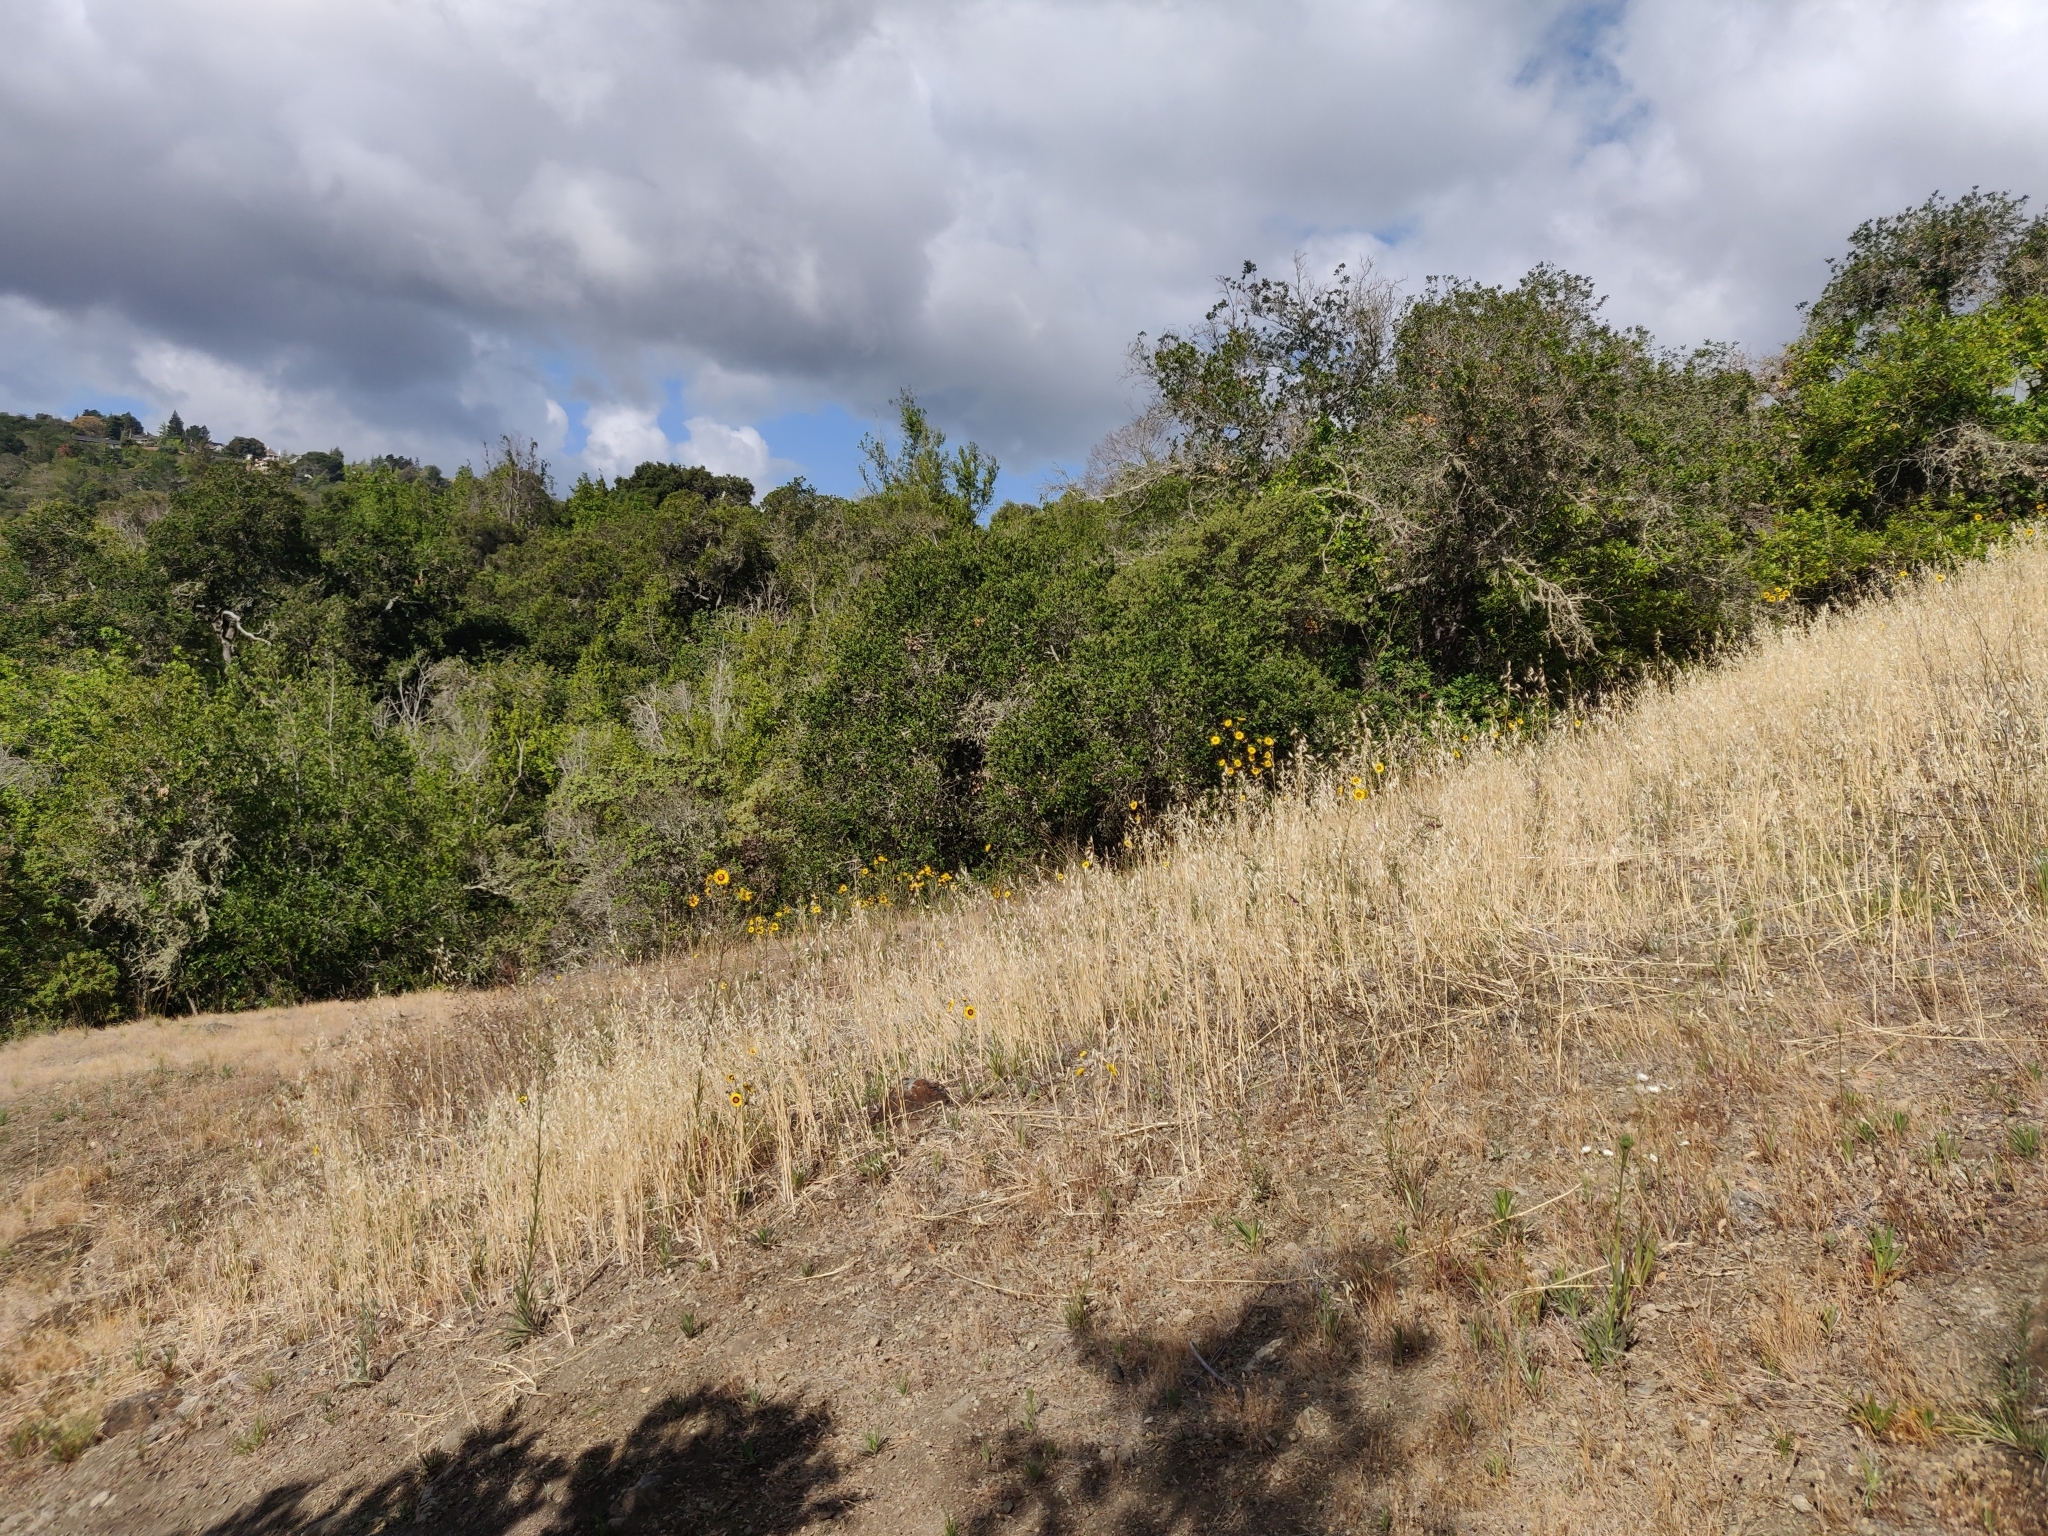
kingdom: Plantae
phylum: Tracheophyta
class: Magnoliopsida
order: Asterales
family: Asteraceae
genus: Madia
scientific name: Madia elegans
